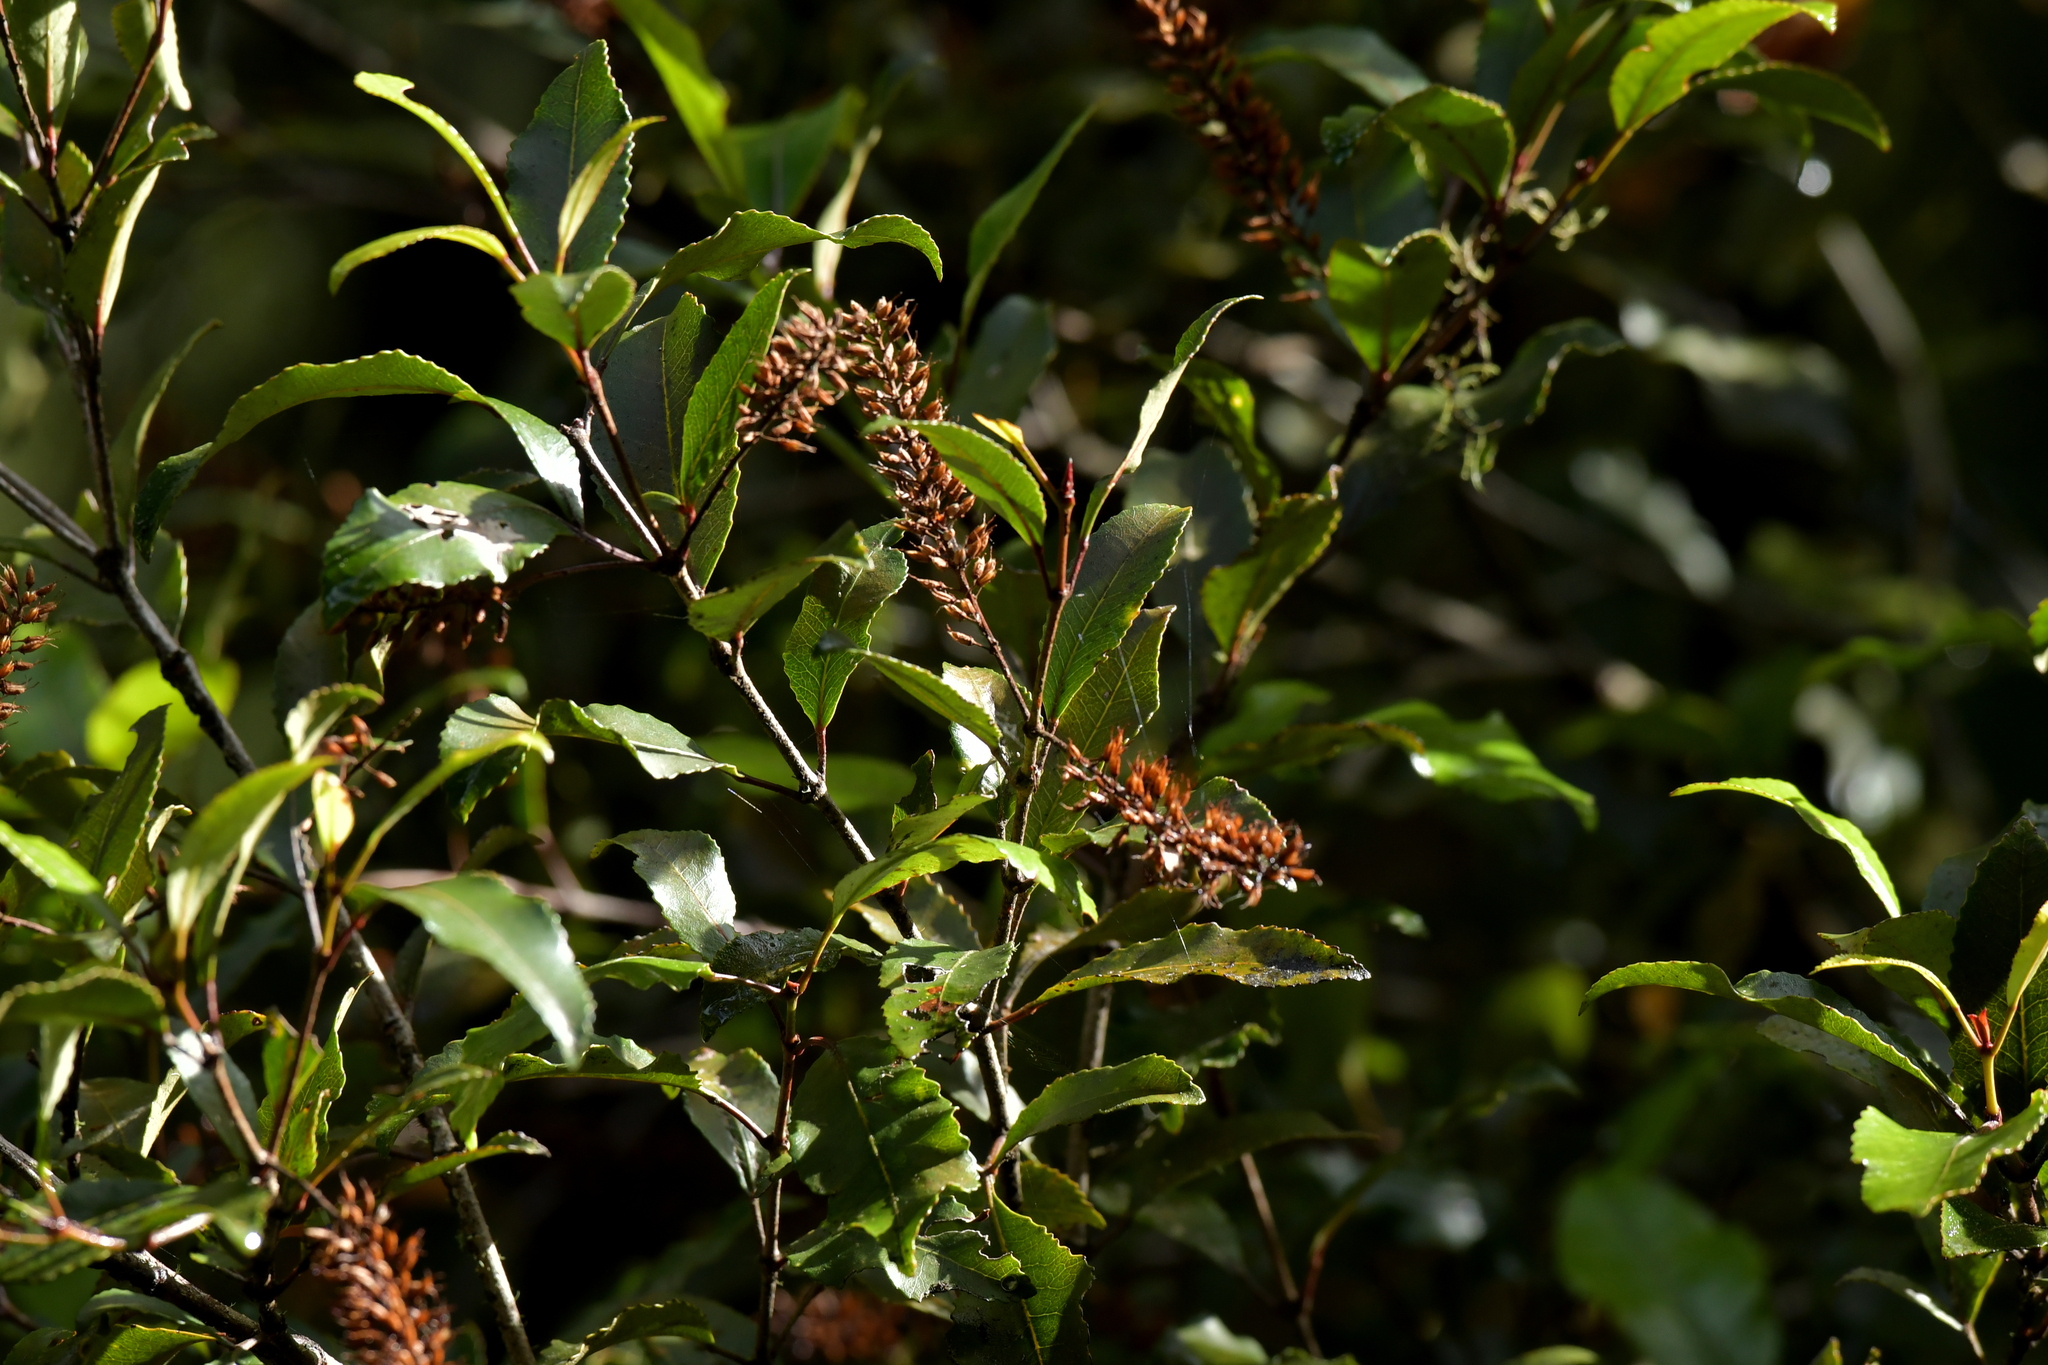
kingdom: Plantae
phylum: Tracheophyta
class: Magnoliopsida
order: Oxalidales
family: Cunoniaceae
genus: Pterophylla
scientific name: Pterophylla racemosa
